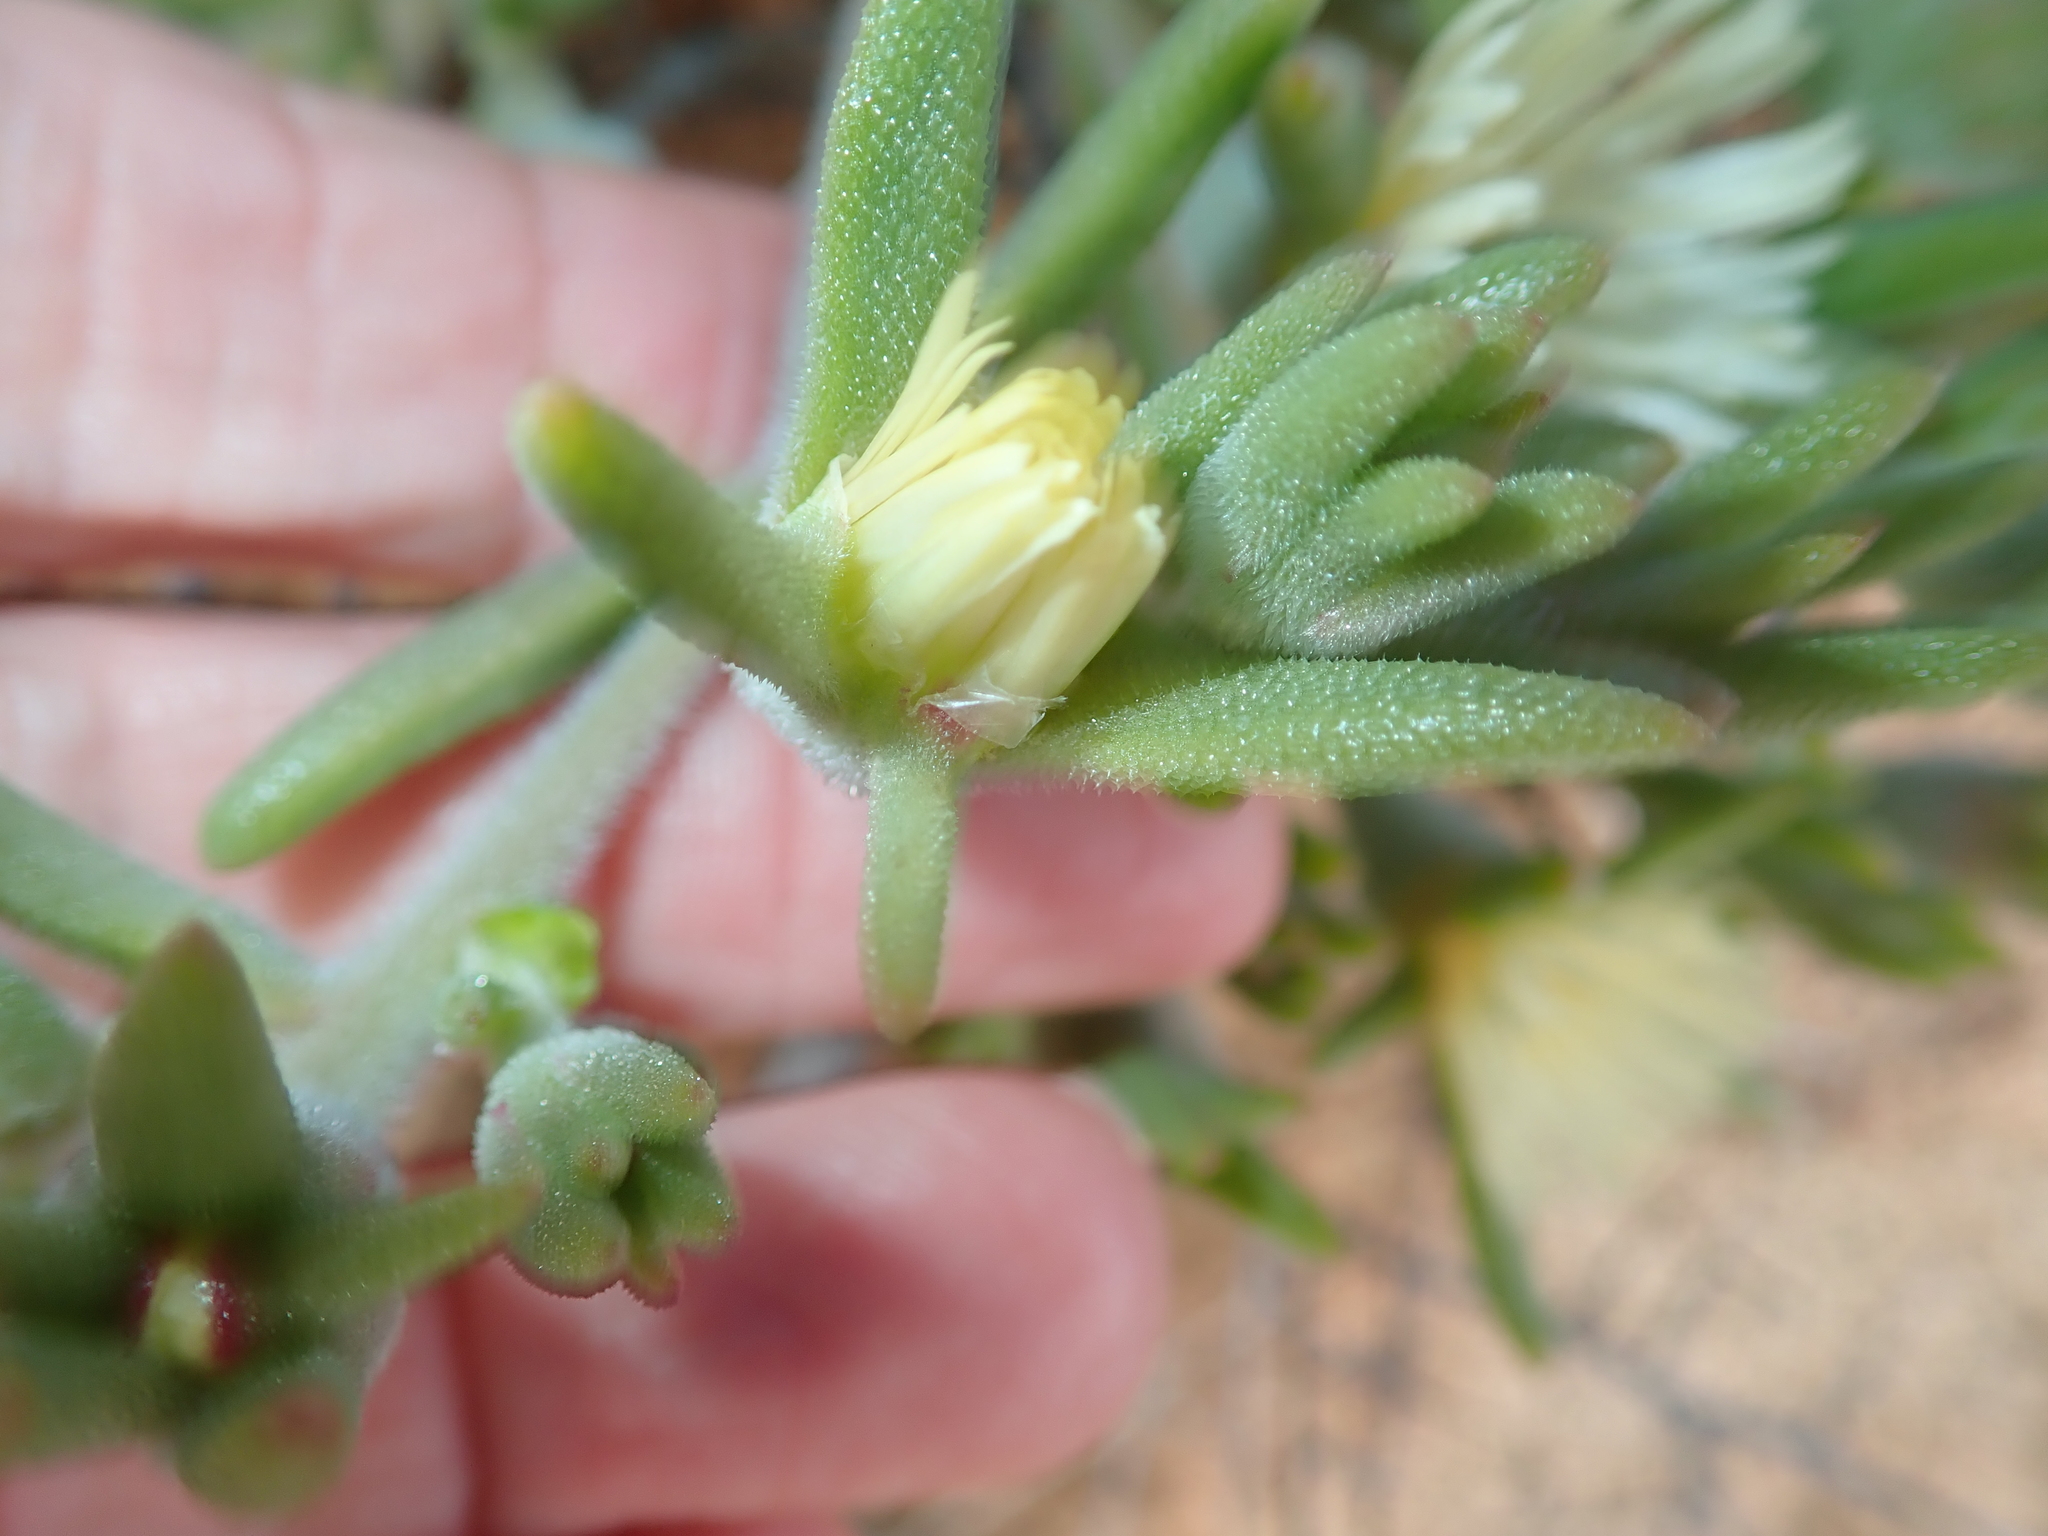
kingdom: Plantae
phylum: Tracheophyta
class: Magnoliopsida
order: Caryophyllales
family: Aizoaceae
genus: Mesembryanthemum
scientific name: Mesembryanthemum
